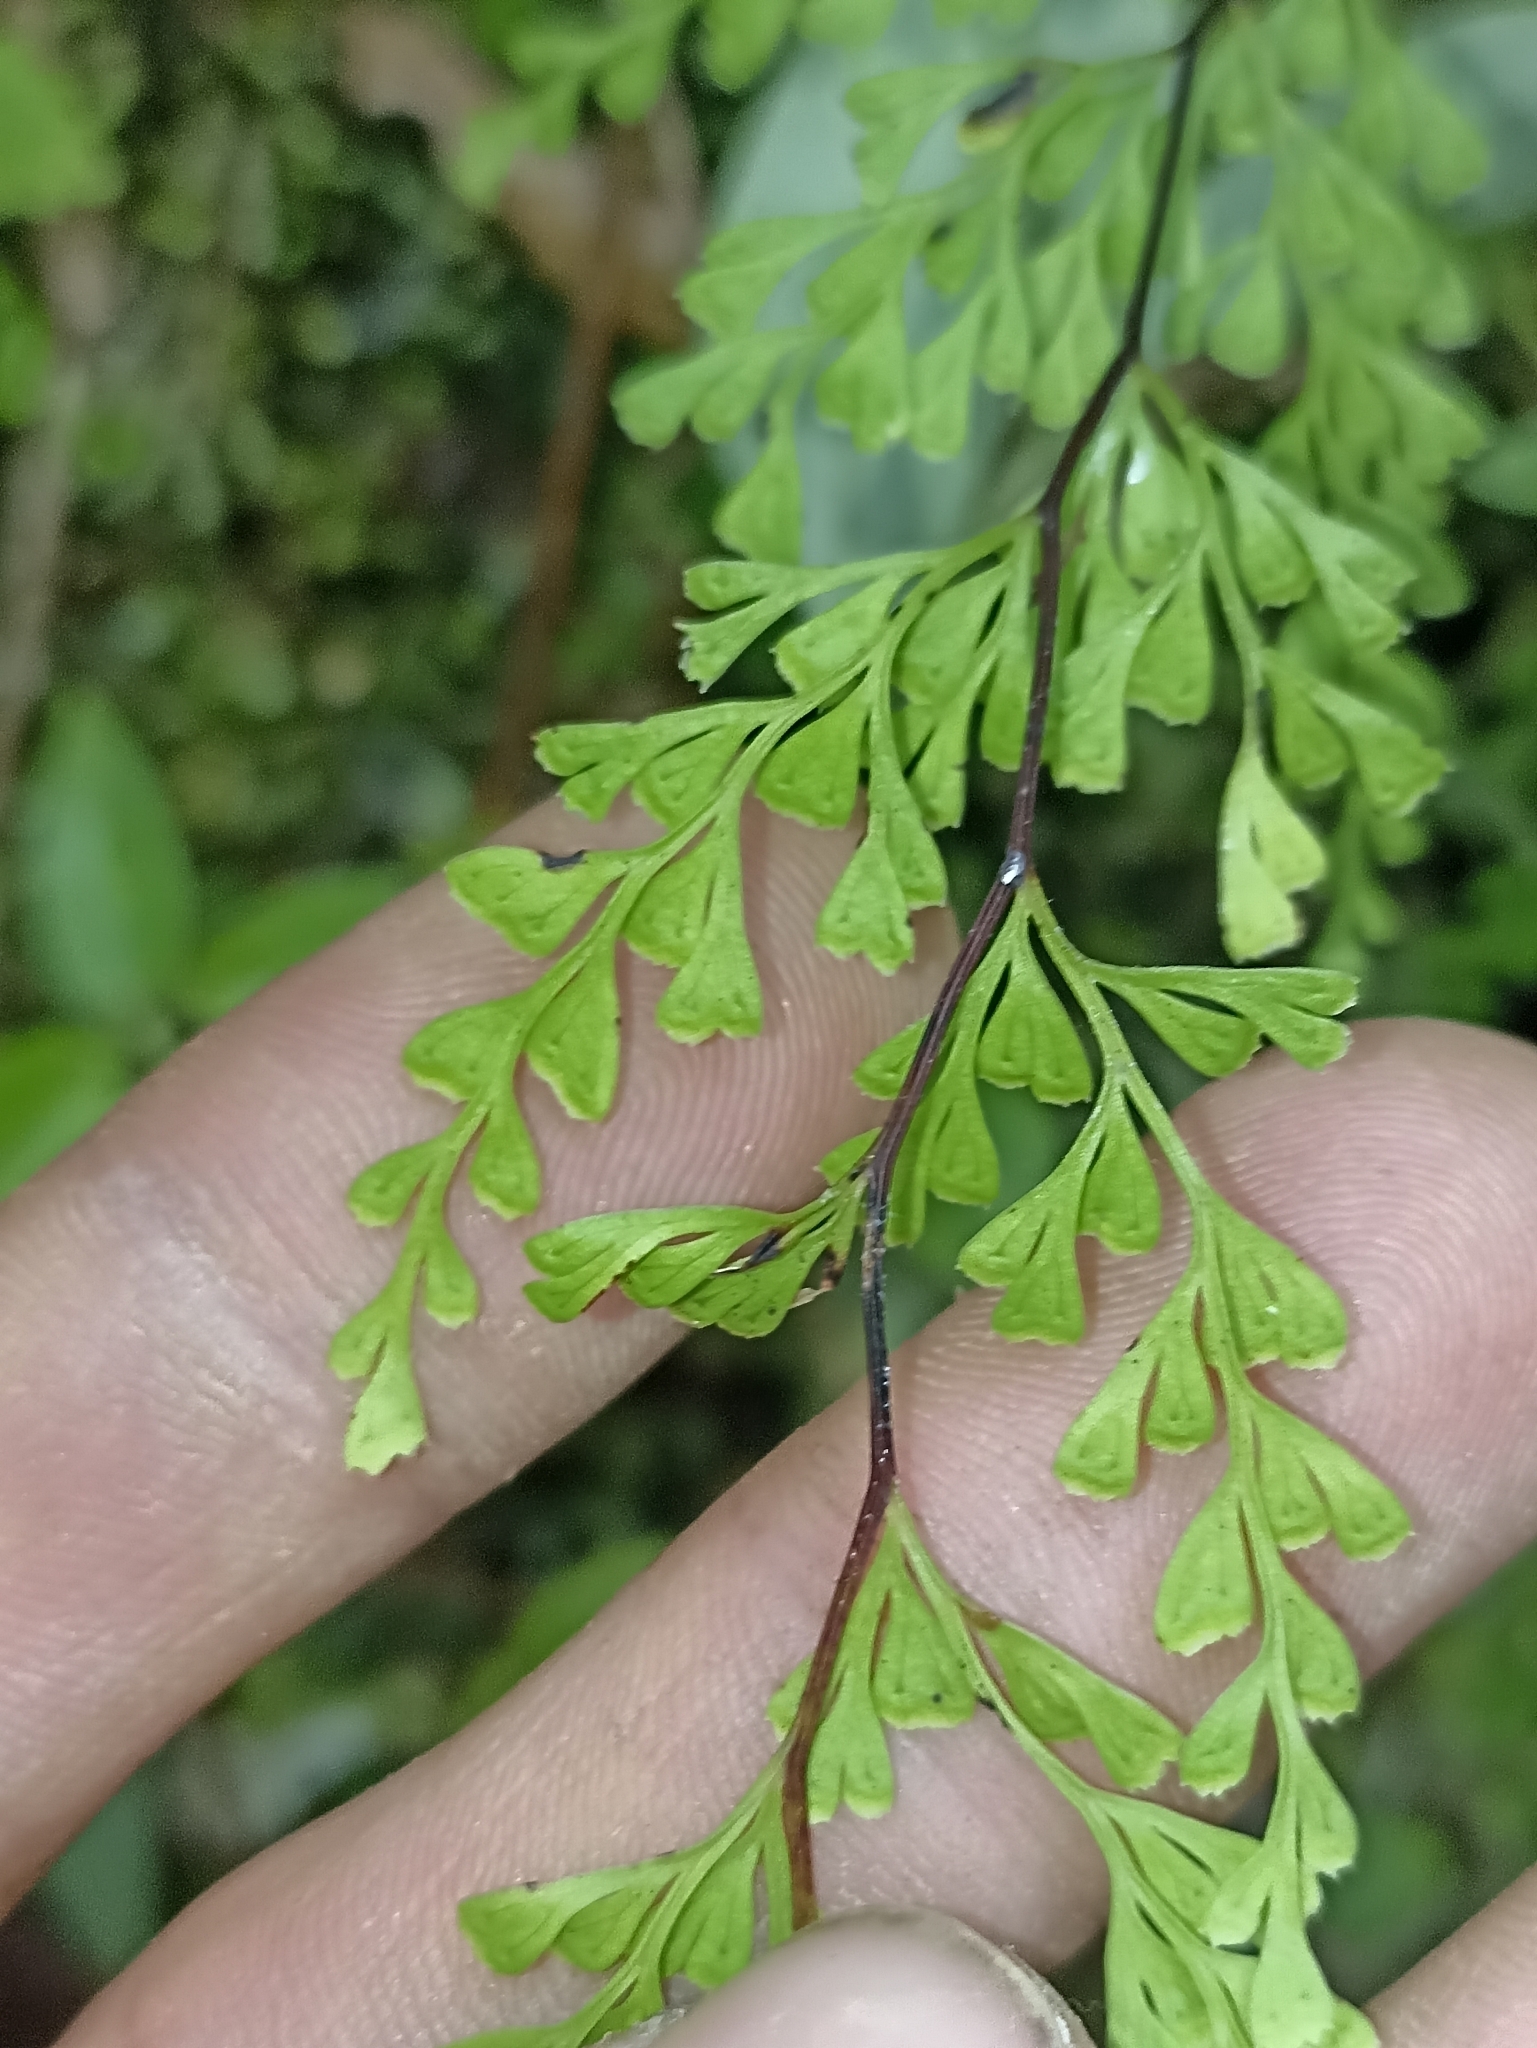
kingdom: Plantae
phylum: Tracheophyta
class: Polypodiopsida
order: Polypodiales
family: Lindsaeaceae
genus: Odontosoria
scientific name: Odontosoria viridis
